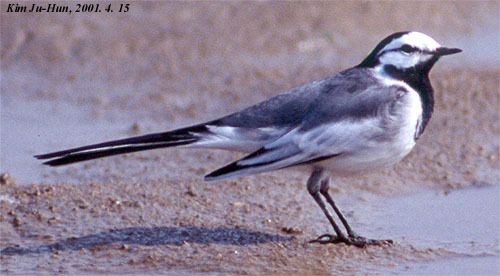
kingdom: Animalia
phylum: Chordata
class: Aves
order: Passeriformes
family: Motacillidae
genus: Motacilla
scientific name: Motacilla alba
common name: White wagtail
